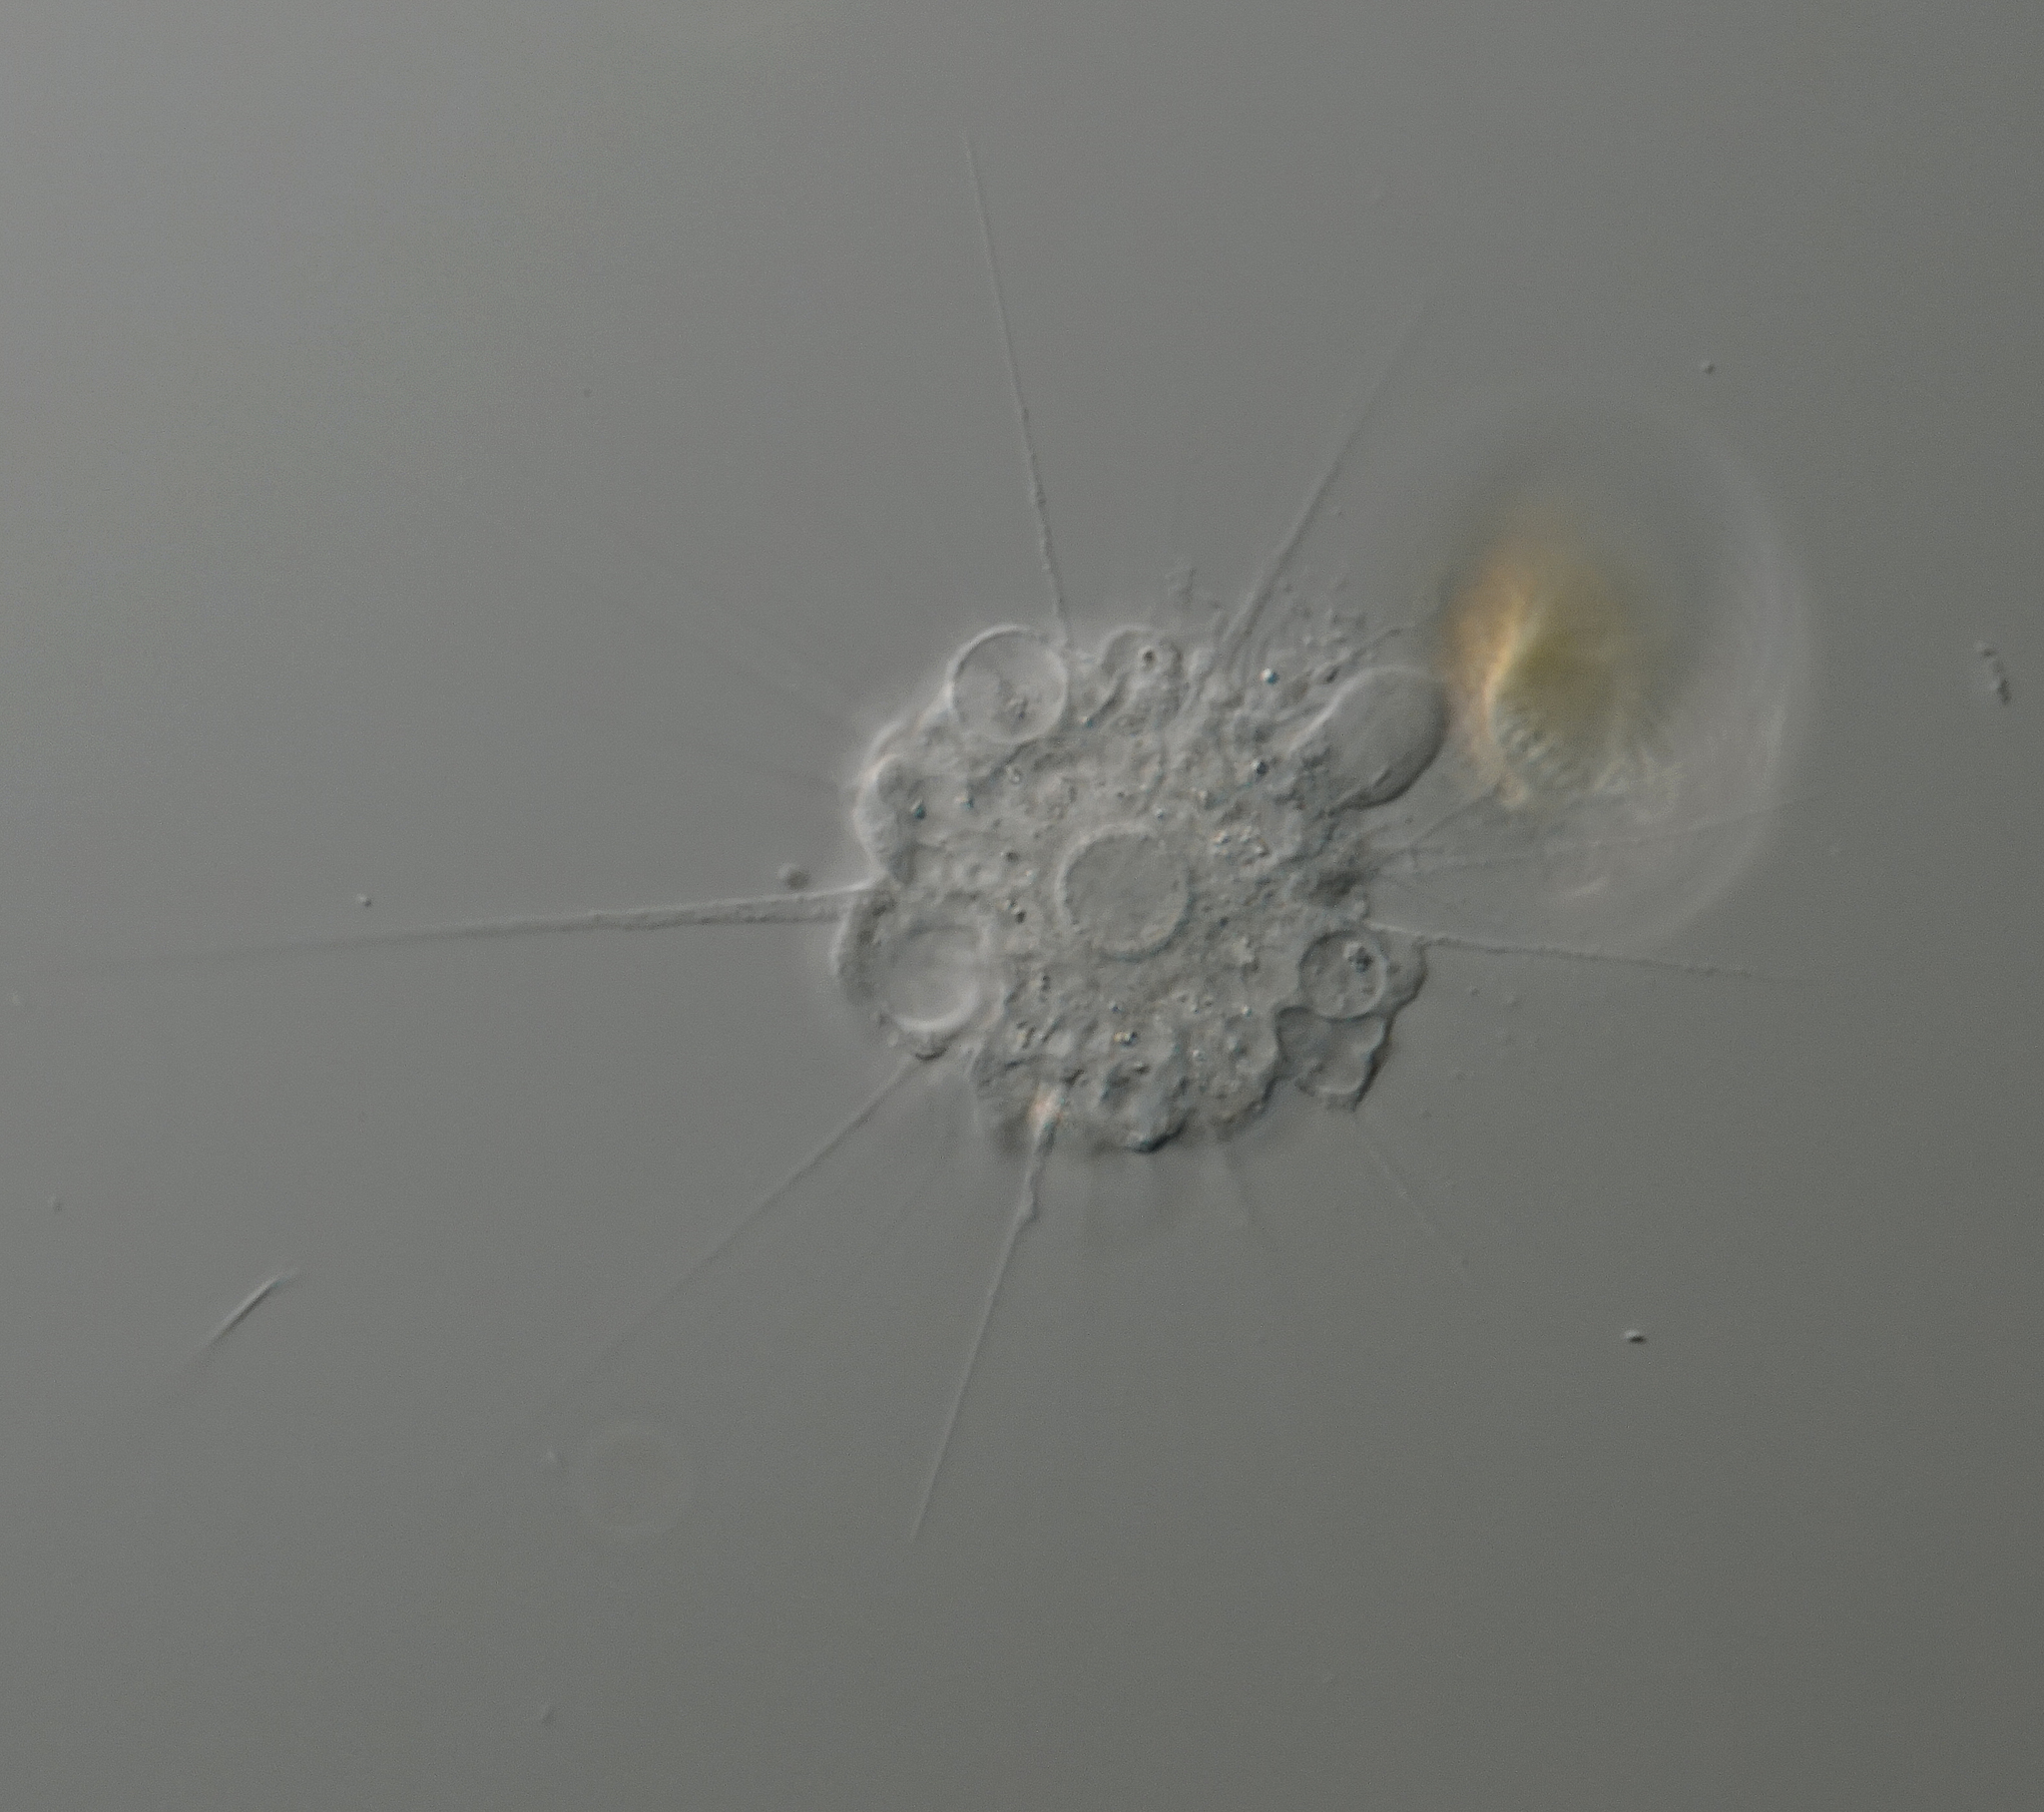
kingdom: Chromista
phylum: Ochrophyta
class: Raphidophyceae
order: Actinophryida
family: Actinophryidae
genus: Actinophrys
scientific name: Actinophrys sol
